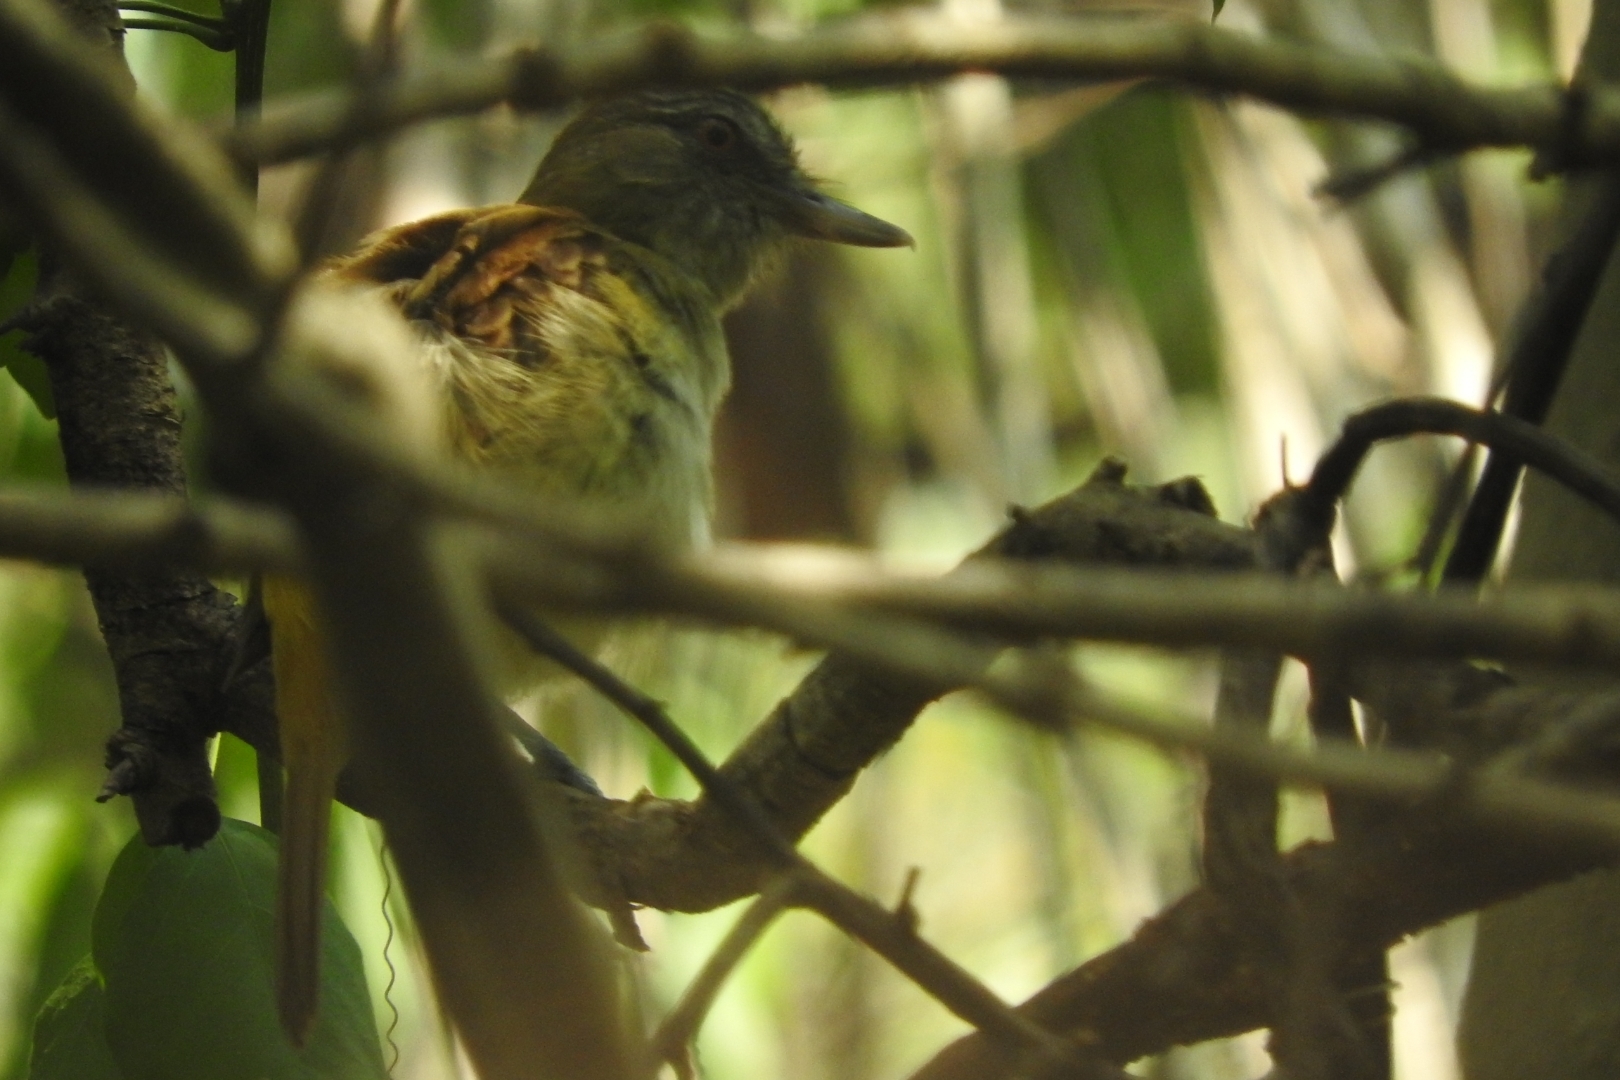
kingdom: Animalia
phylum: Chordata
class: Aves
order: Passeriformes
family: Tyrannidae
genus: Attila
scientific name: Attila spadiceus
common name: Bright-rumped attila
